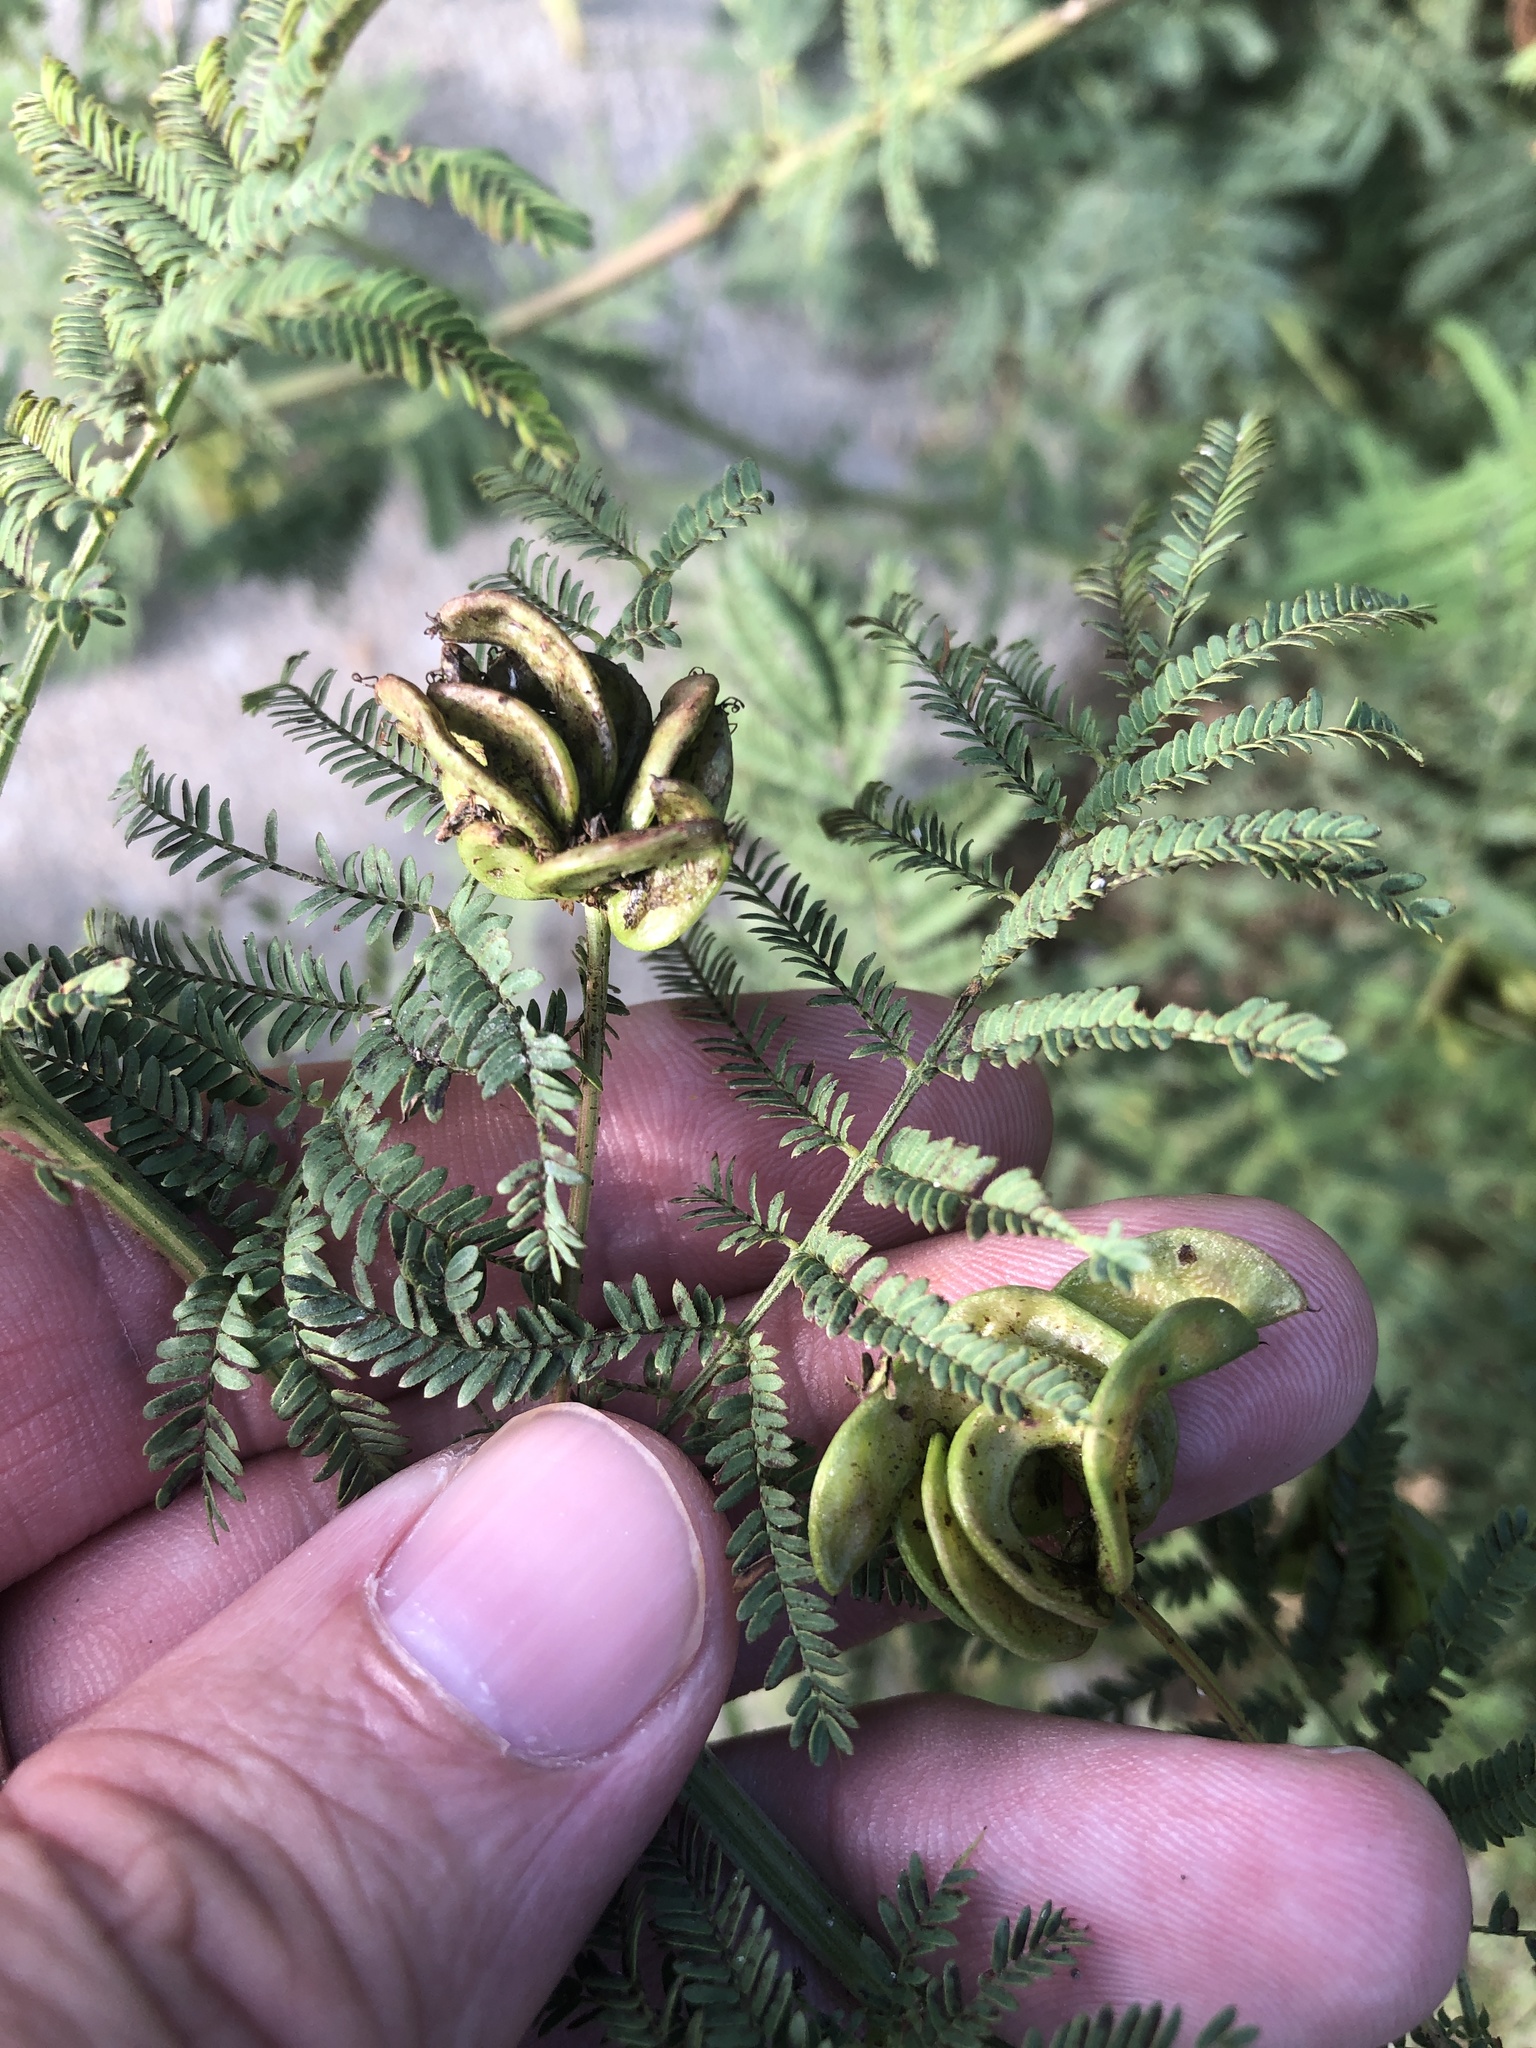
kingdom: Plantae
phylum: Tracheophyta
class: Magnoliopsida
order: Fabales
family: Fabaceae
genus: Desmanthus
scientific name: Desmanthus illinoensis
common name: Illinois bundle-flower
